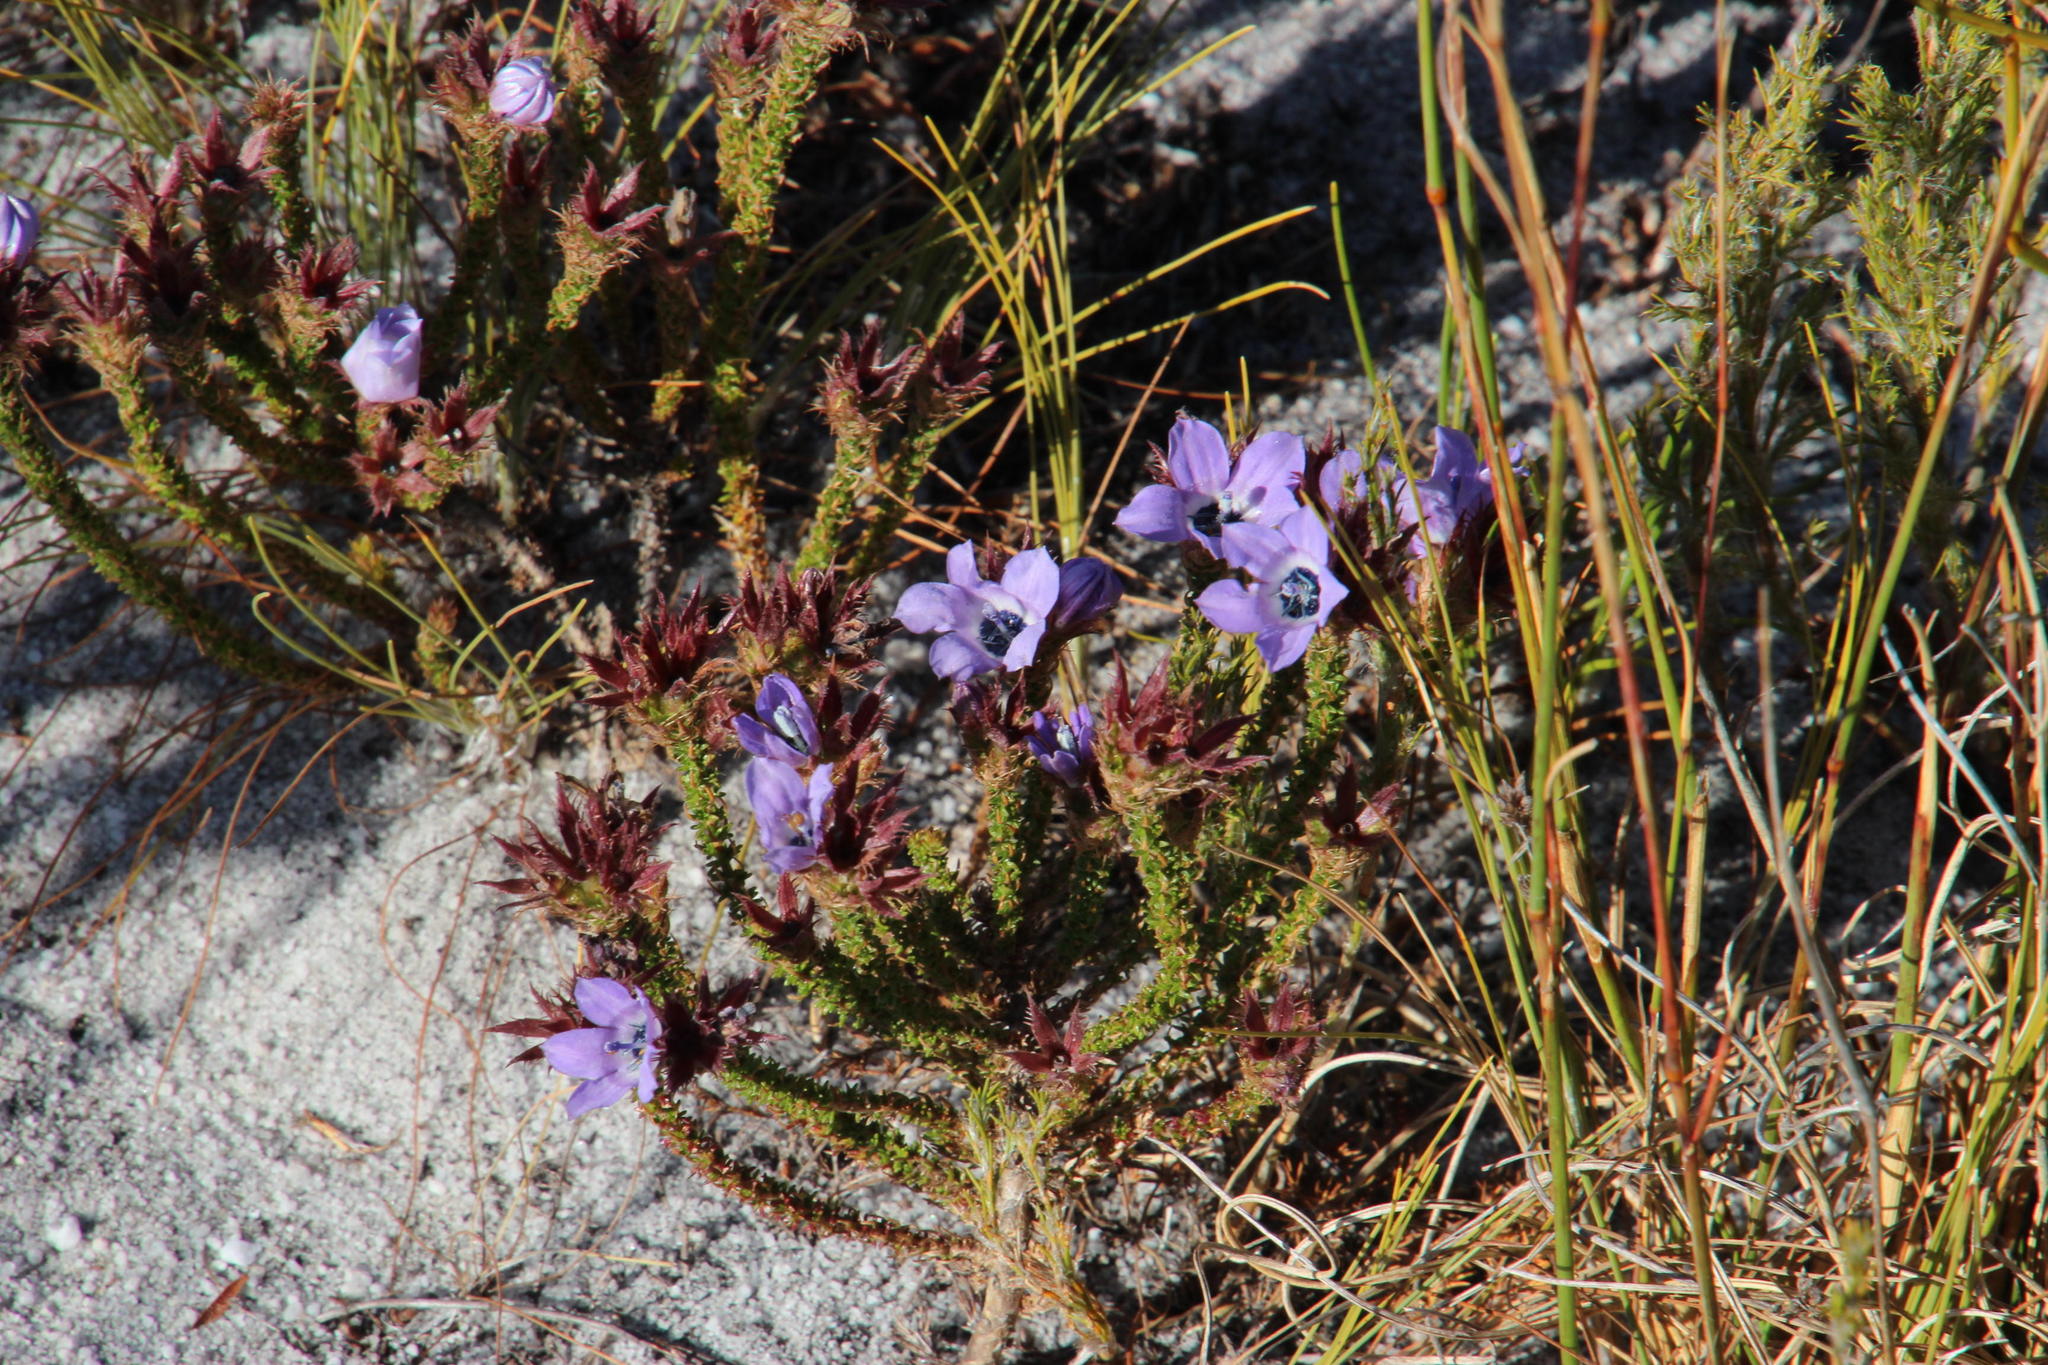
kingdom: Plantae
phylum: Tracheophyta
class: Magnoliopsida
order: Asterales
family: Campanulaceae
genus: Roella
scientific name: Roella triflora
